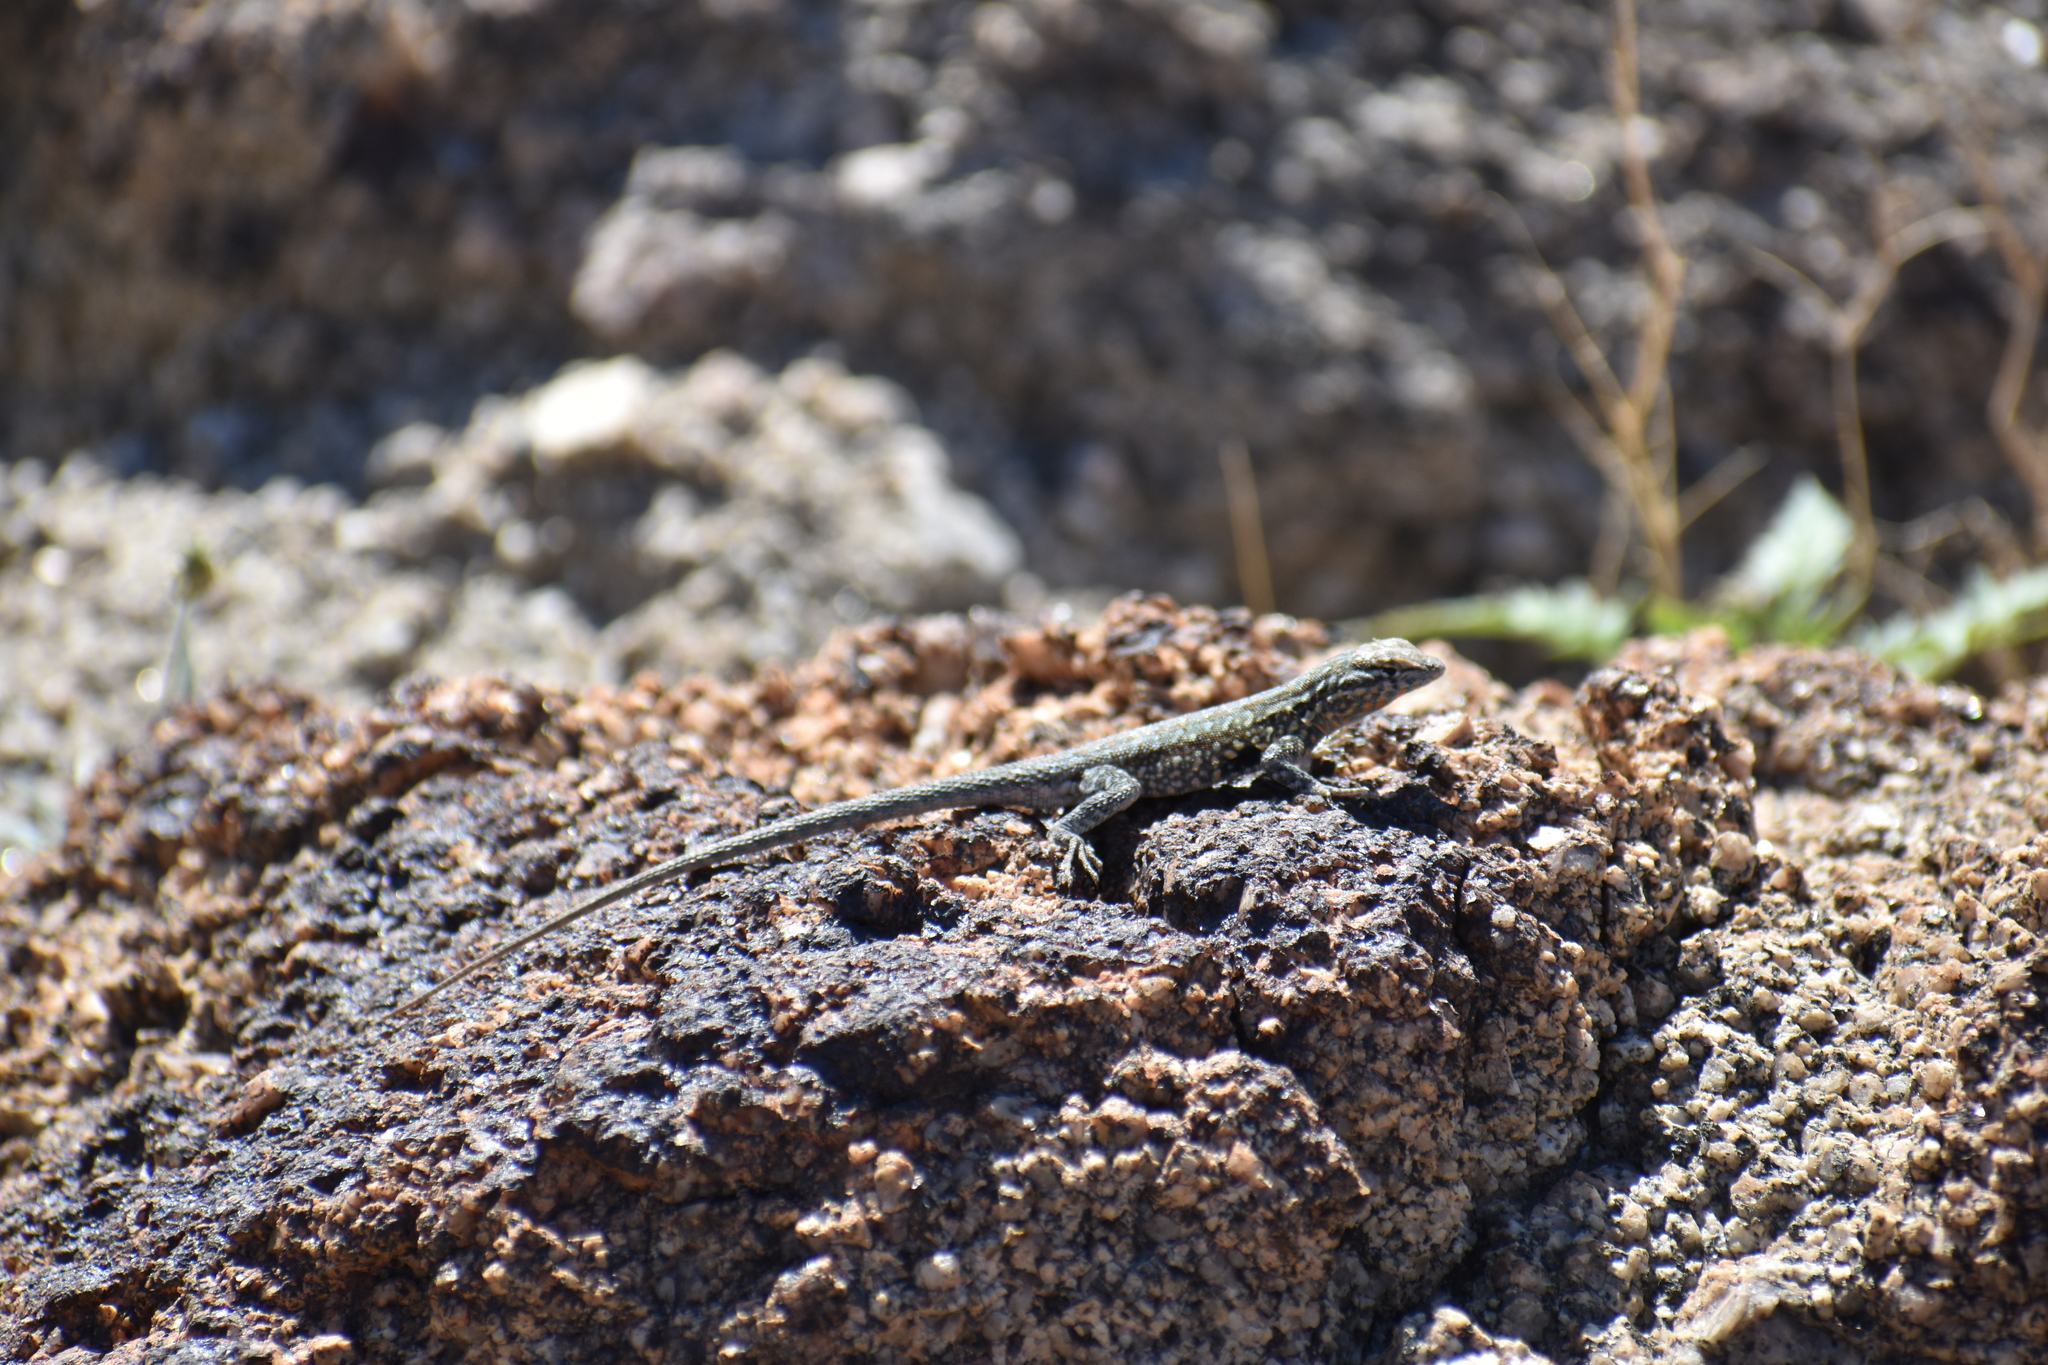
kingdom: Animalia
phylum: Chordata
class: Squamata
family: Phrynosomatidae
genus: Uta
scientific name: Uta stansburiana
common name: Side-blotched lizard
